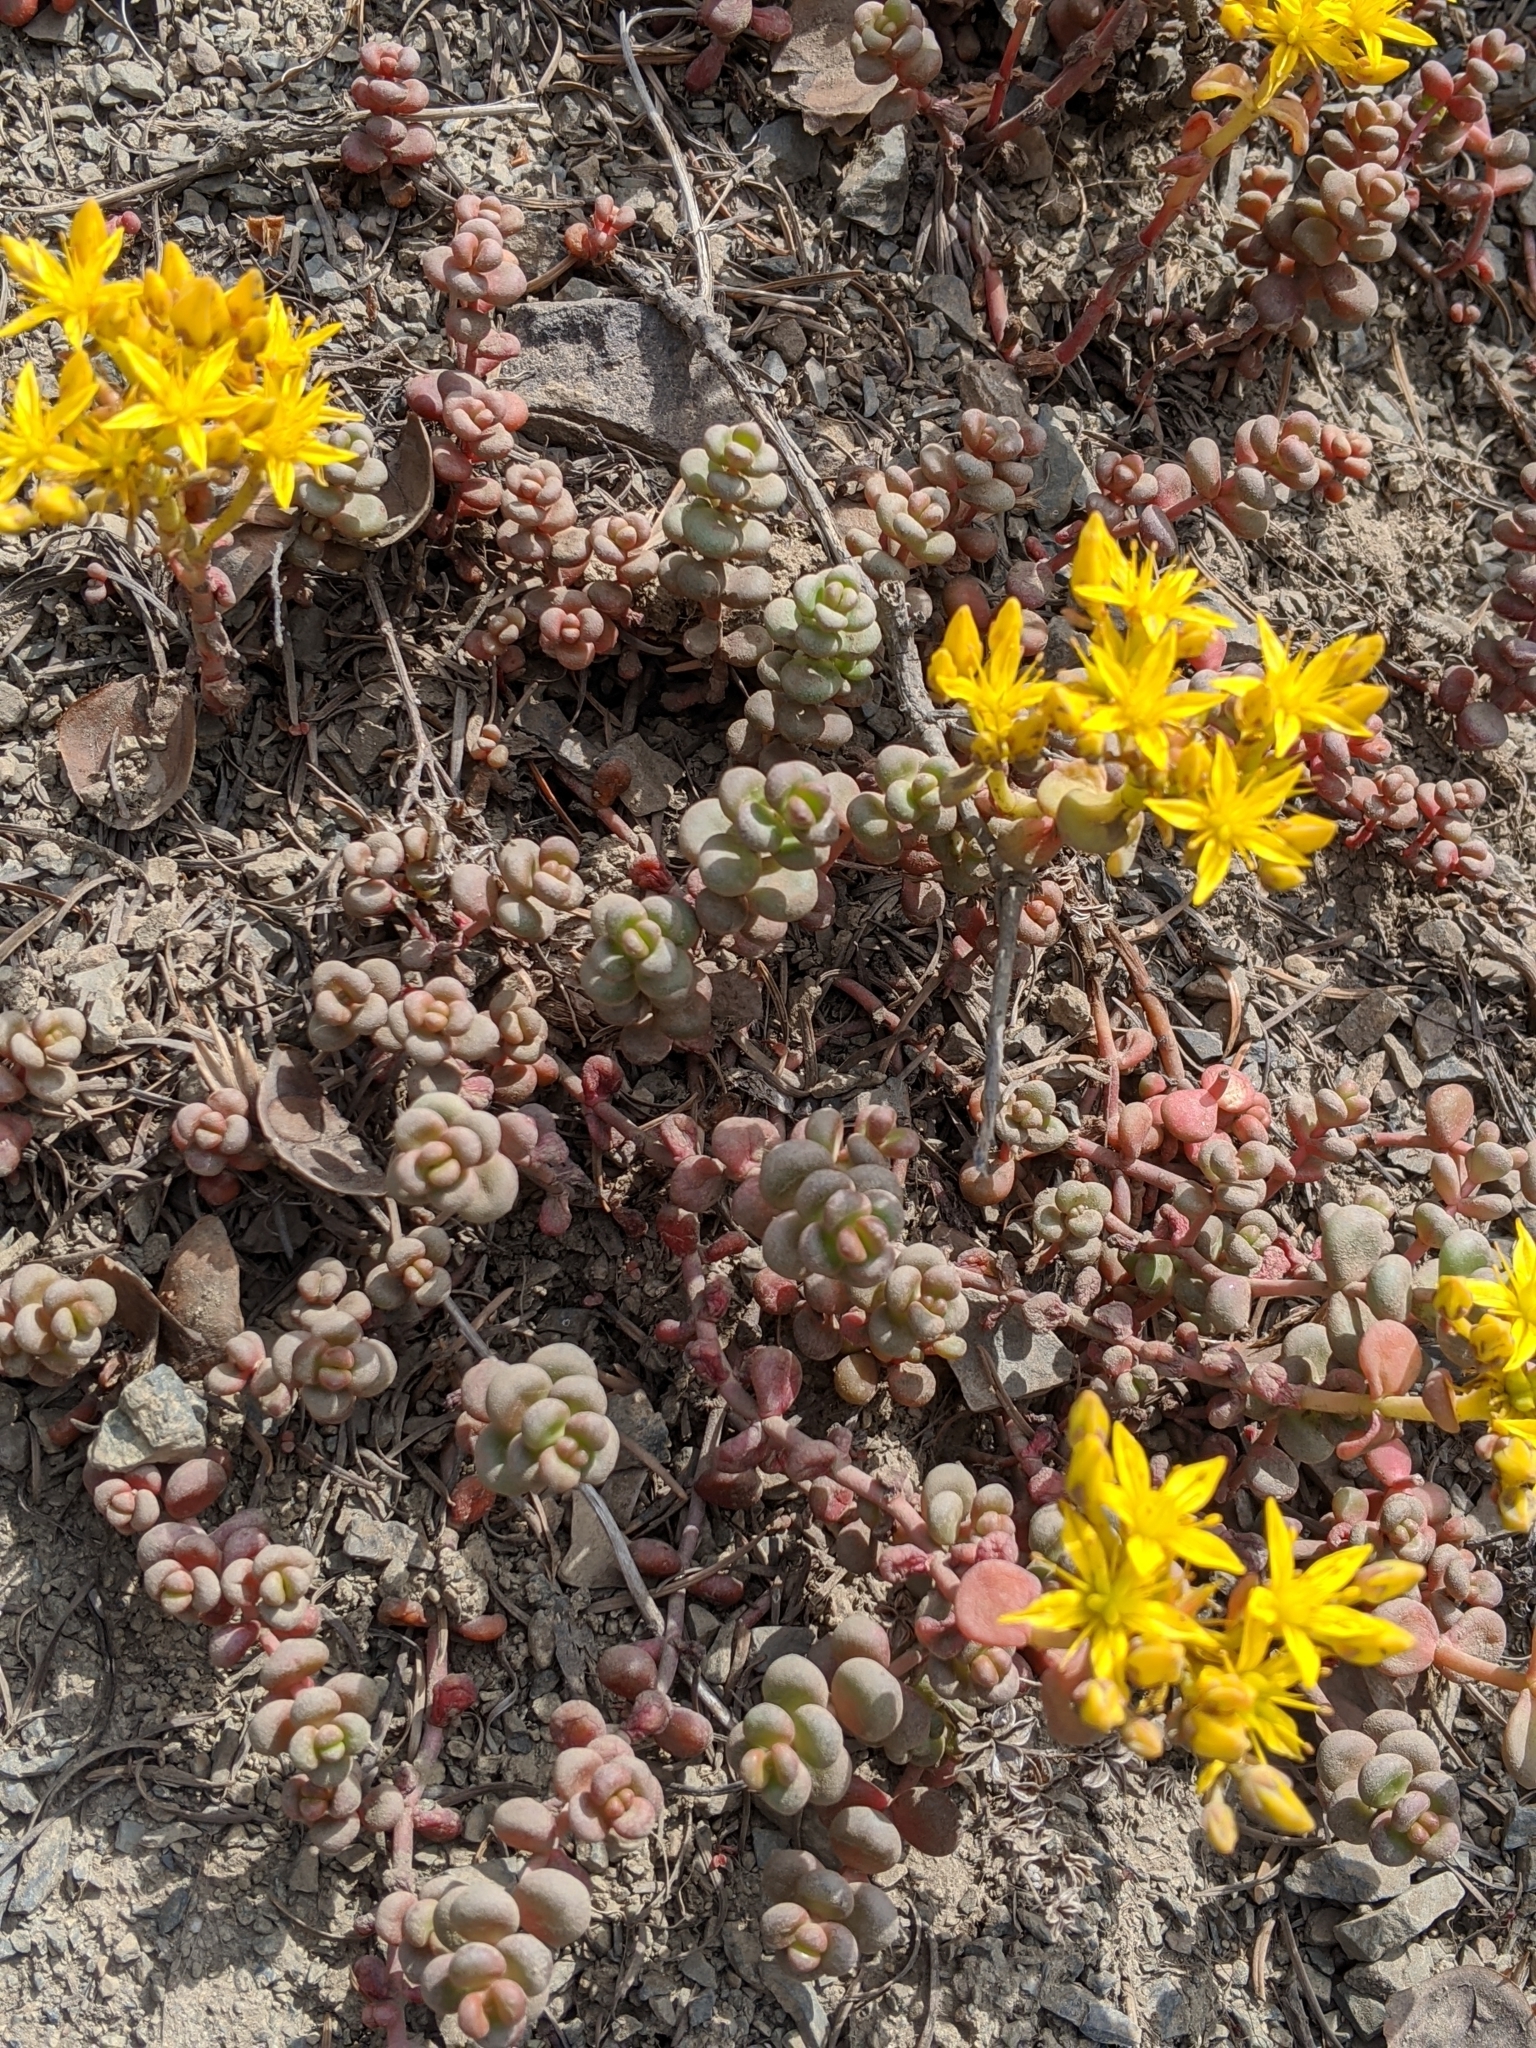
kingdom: Plantae
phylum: Tracheophyta
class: Magnoliopsida
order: Saxifragales
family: Crassulaceae
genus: Sedum
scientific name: Sedum divergens
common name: Cascade stonecrop
